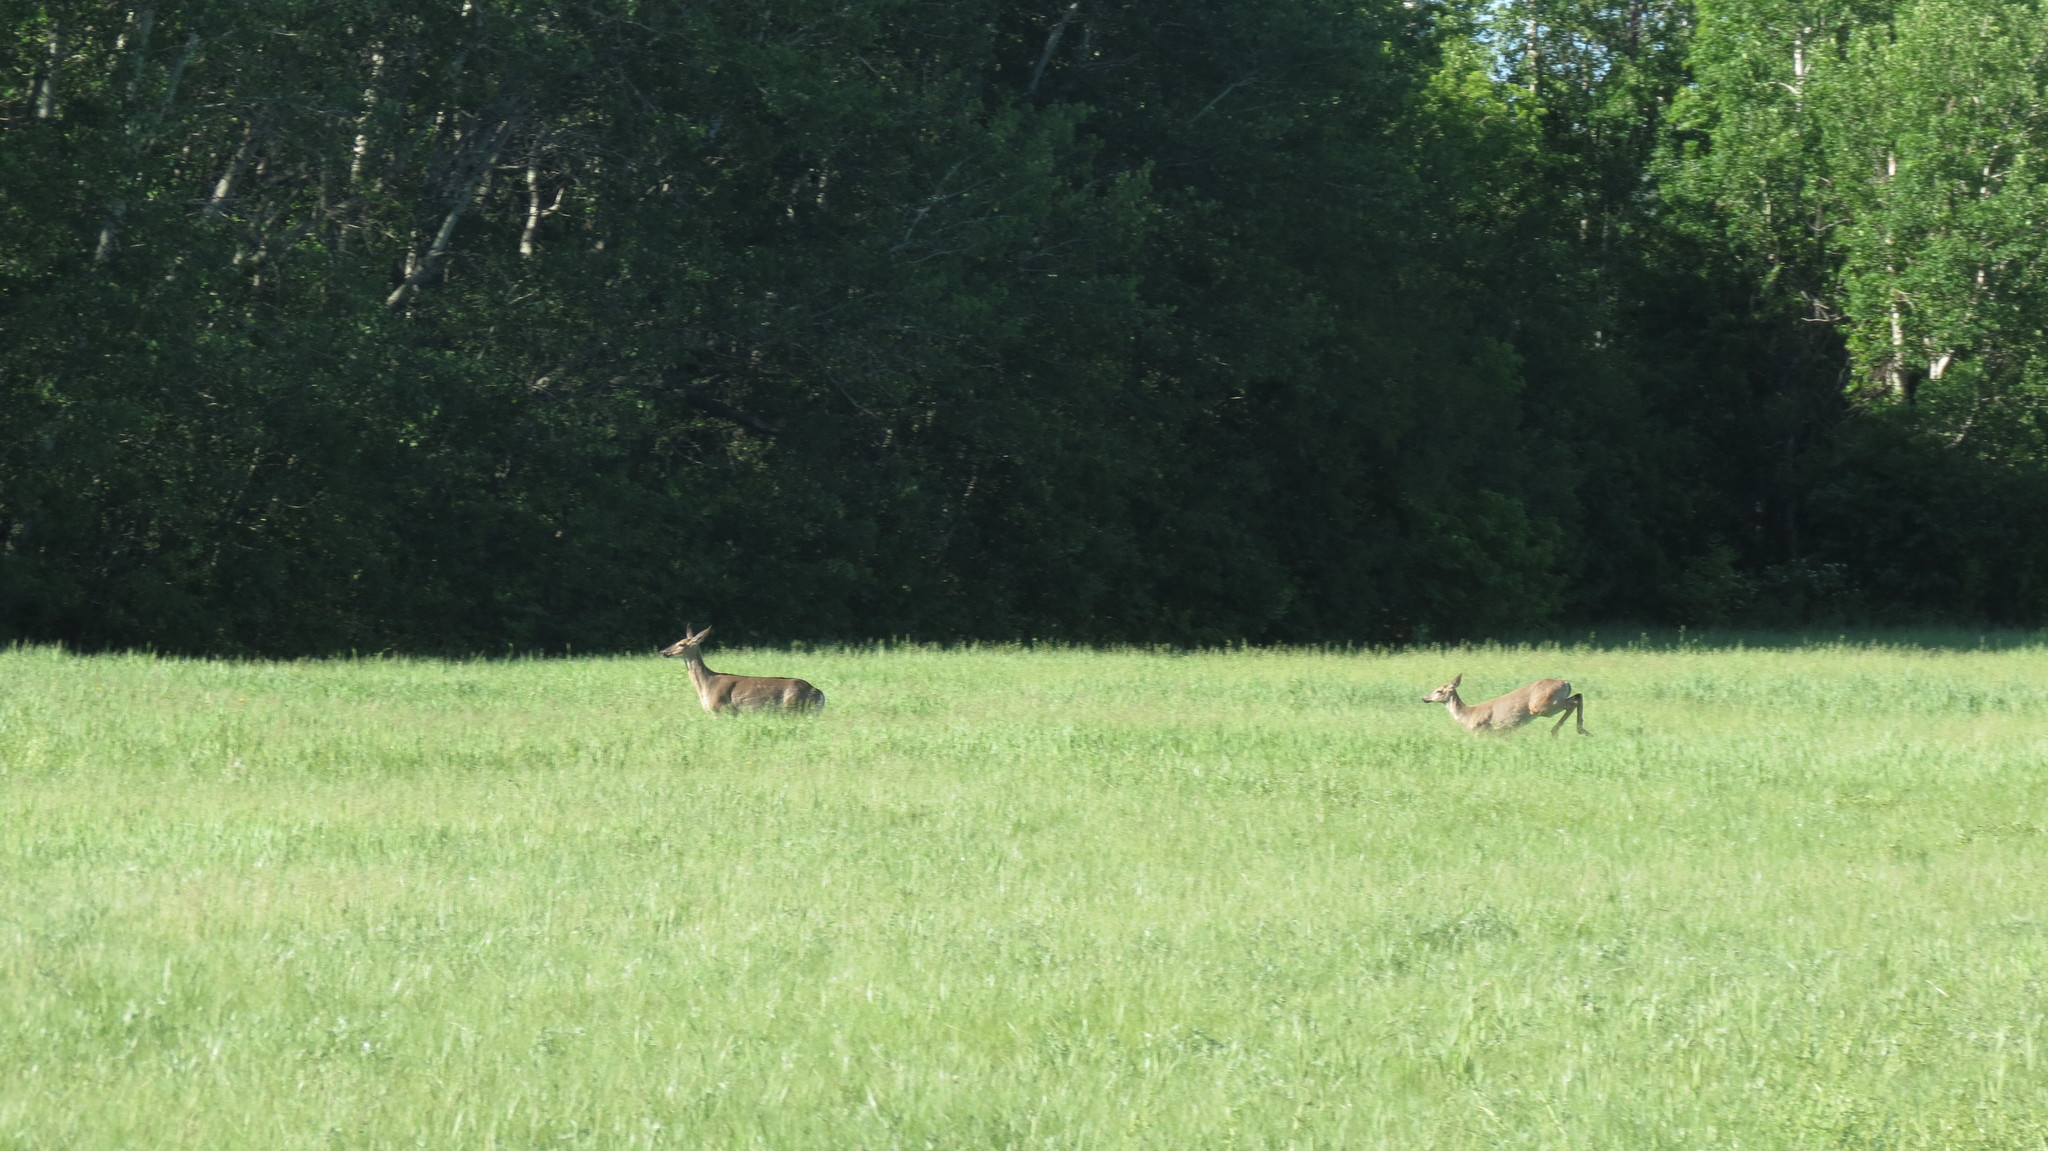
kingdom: Animalia
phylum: Chordata
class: Mammalia
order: Artiodactyla
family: Cervidae
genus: Odocoileus
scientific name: Odocoileus virginianus
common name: White-tailed deer
